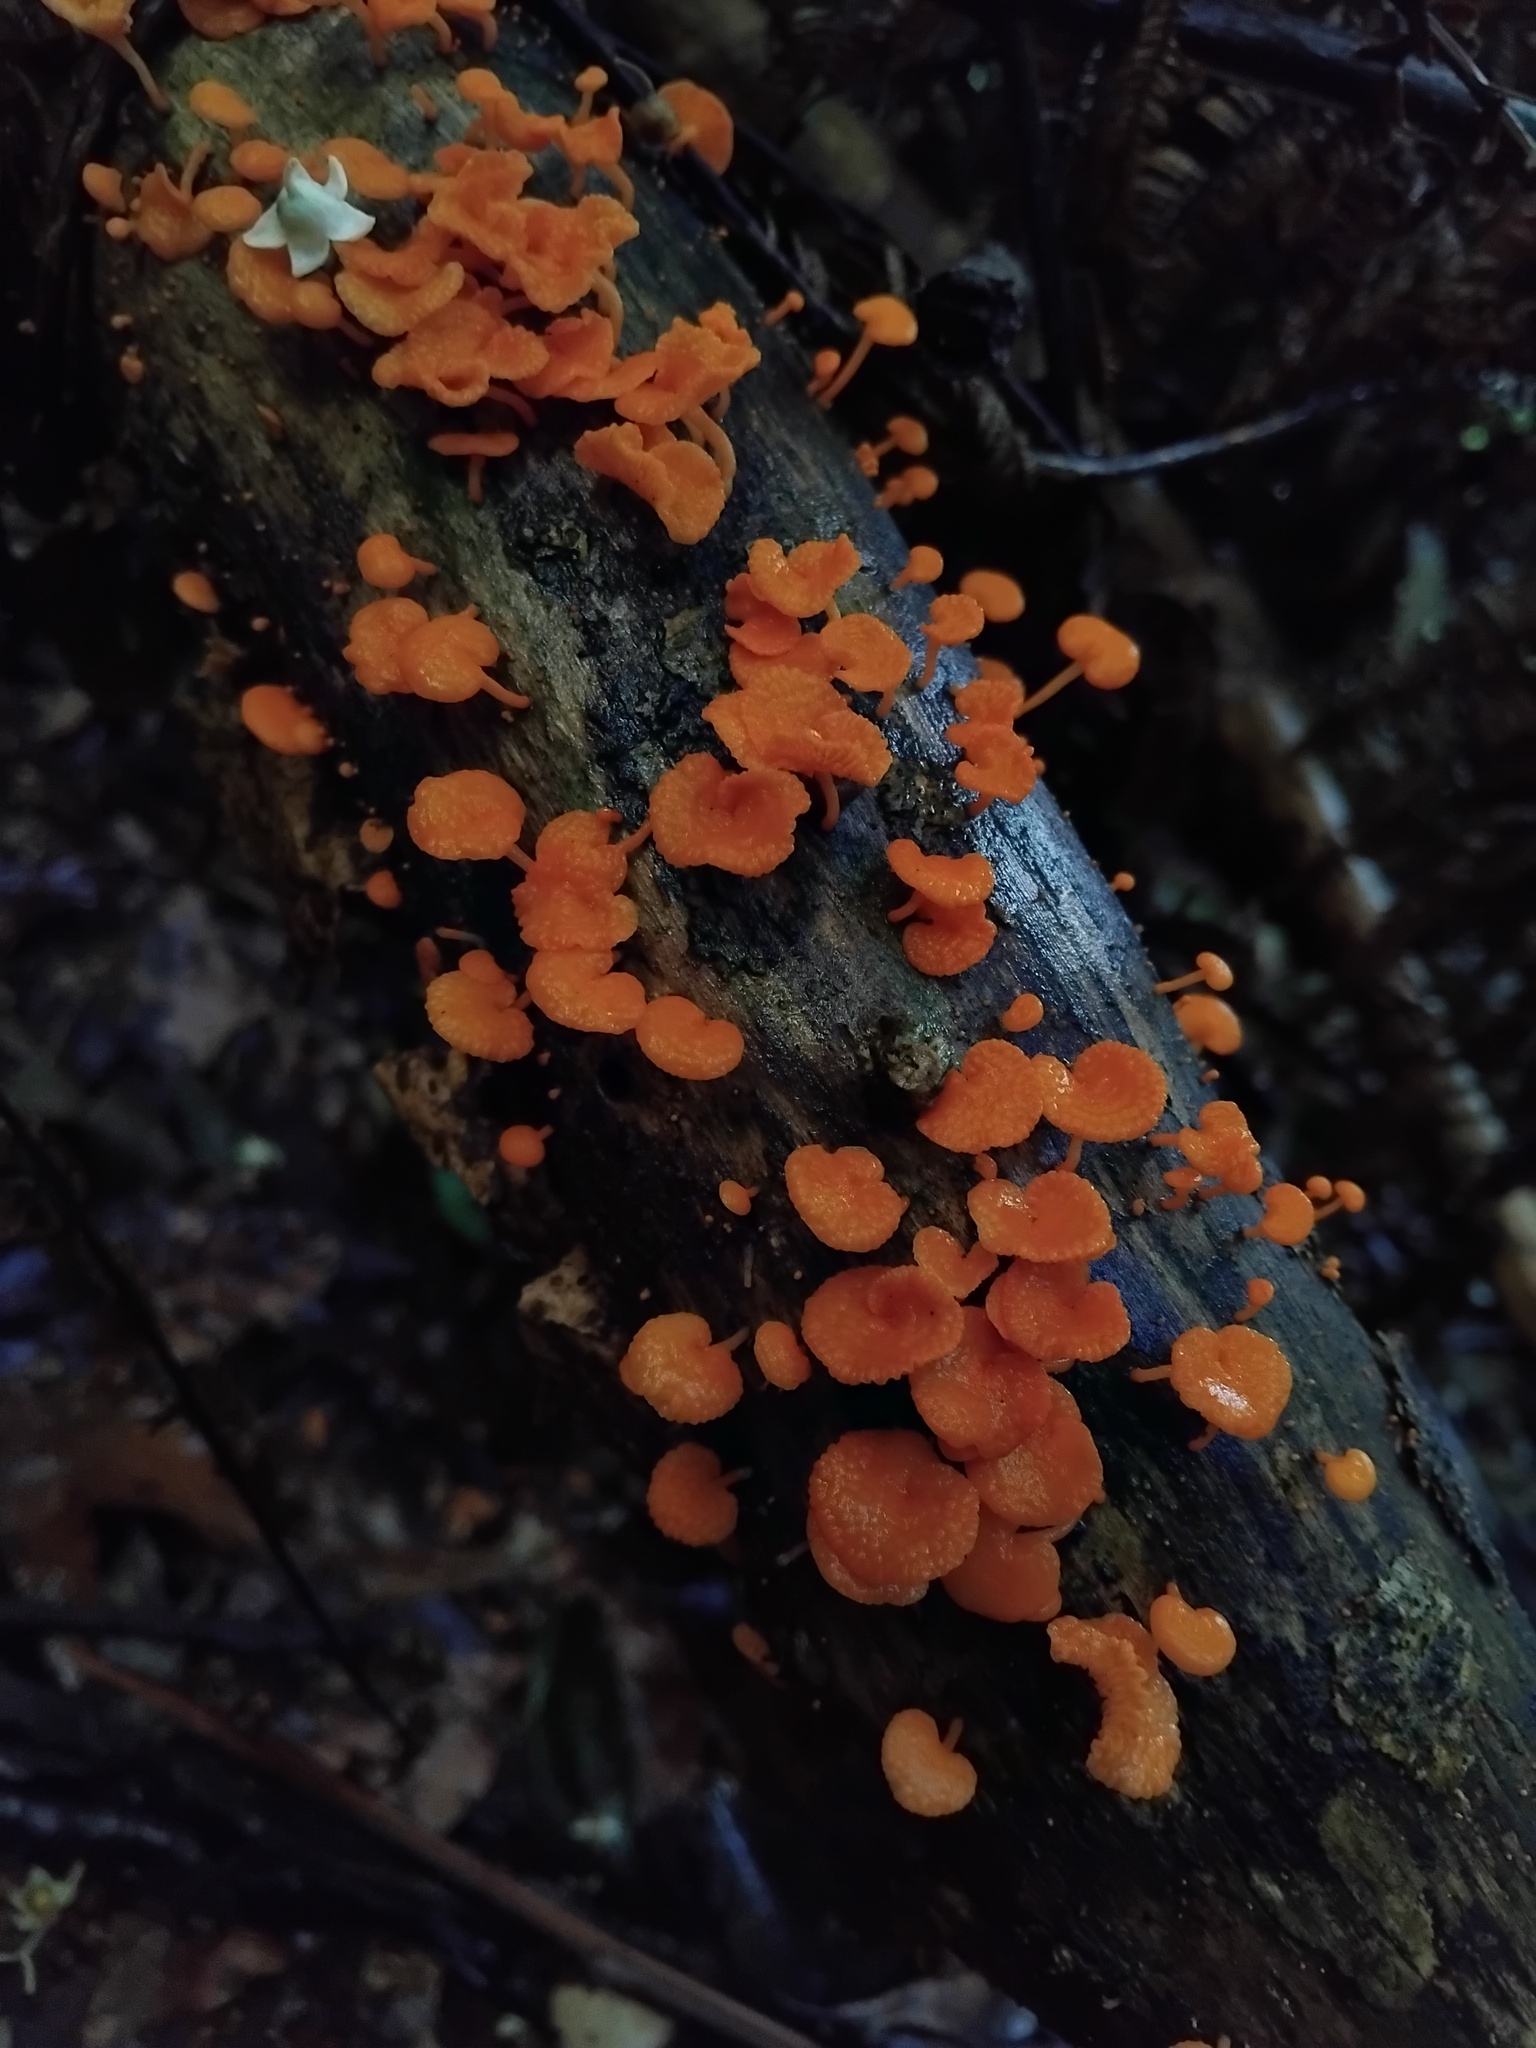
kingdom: Fungi
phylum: Basidiomycota
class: Agaricomycetes
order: Agaricales
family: Mycenaceae
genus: Favolaschia
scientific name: Favolaschia claudopus
